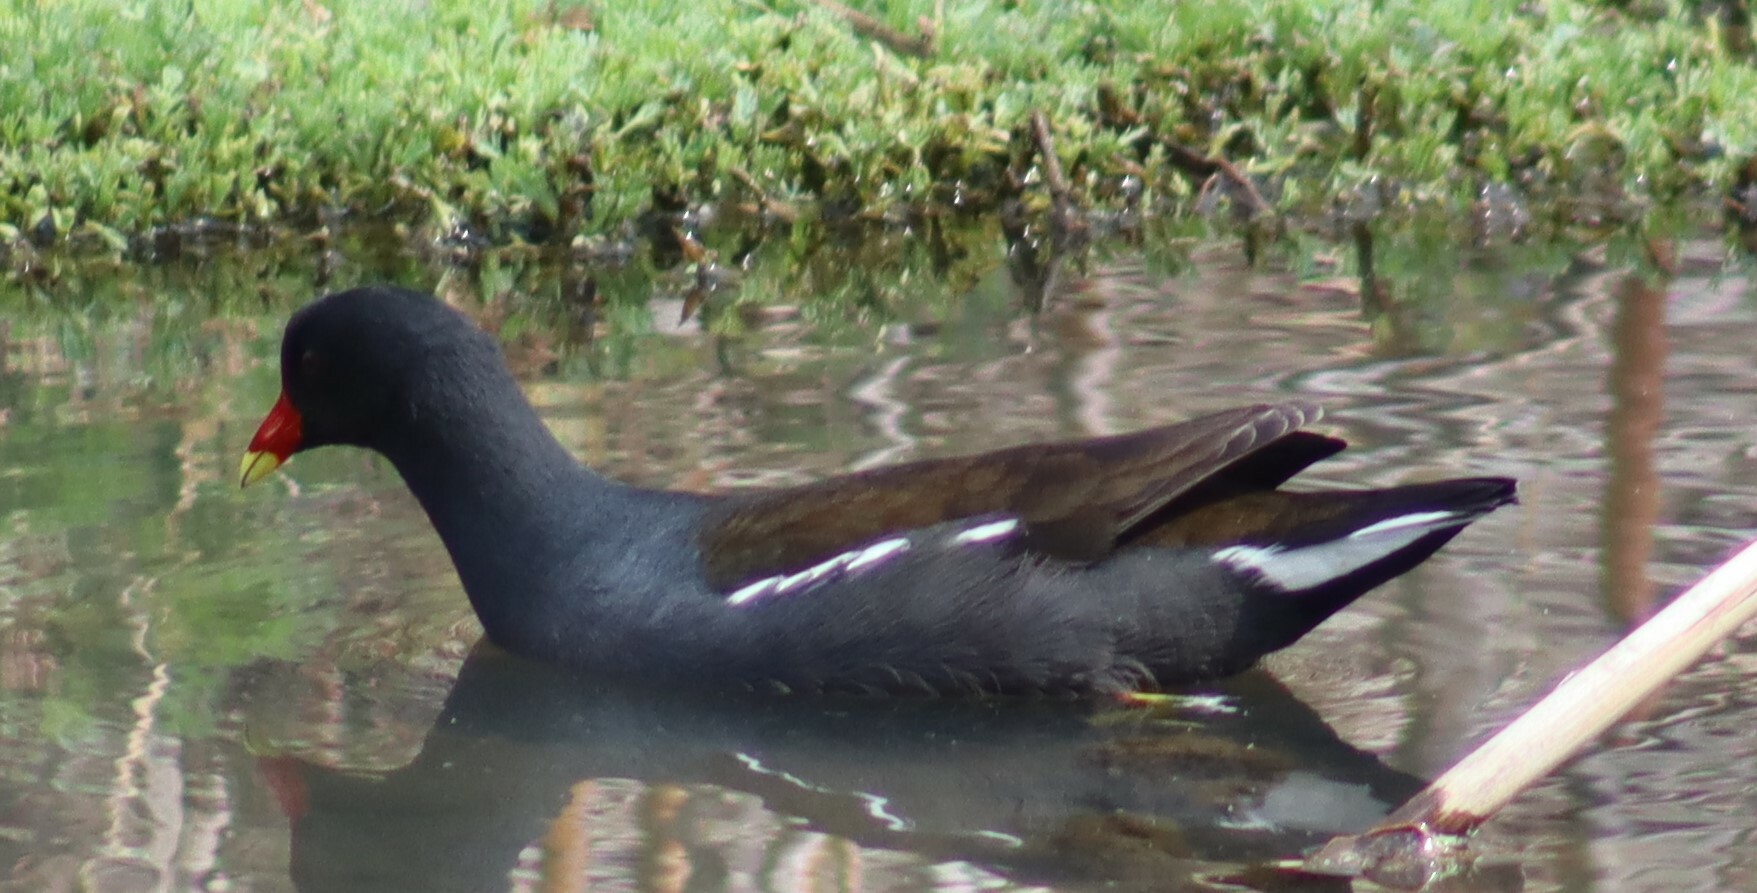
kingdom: Animalia
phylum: Chordata
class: Aves
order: Gruiformes
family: Rallidae
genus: Gallinula
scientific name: Gallinula chloropus
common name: Common moorhen
